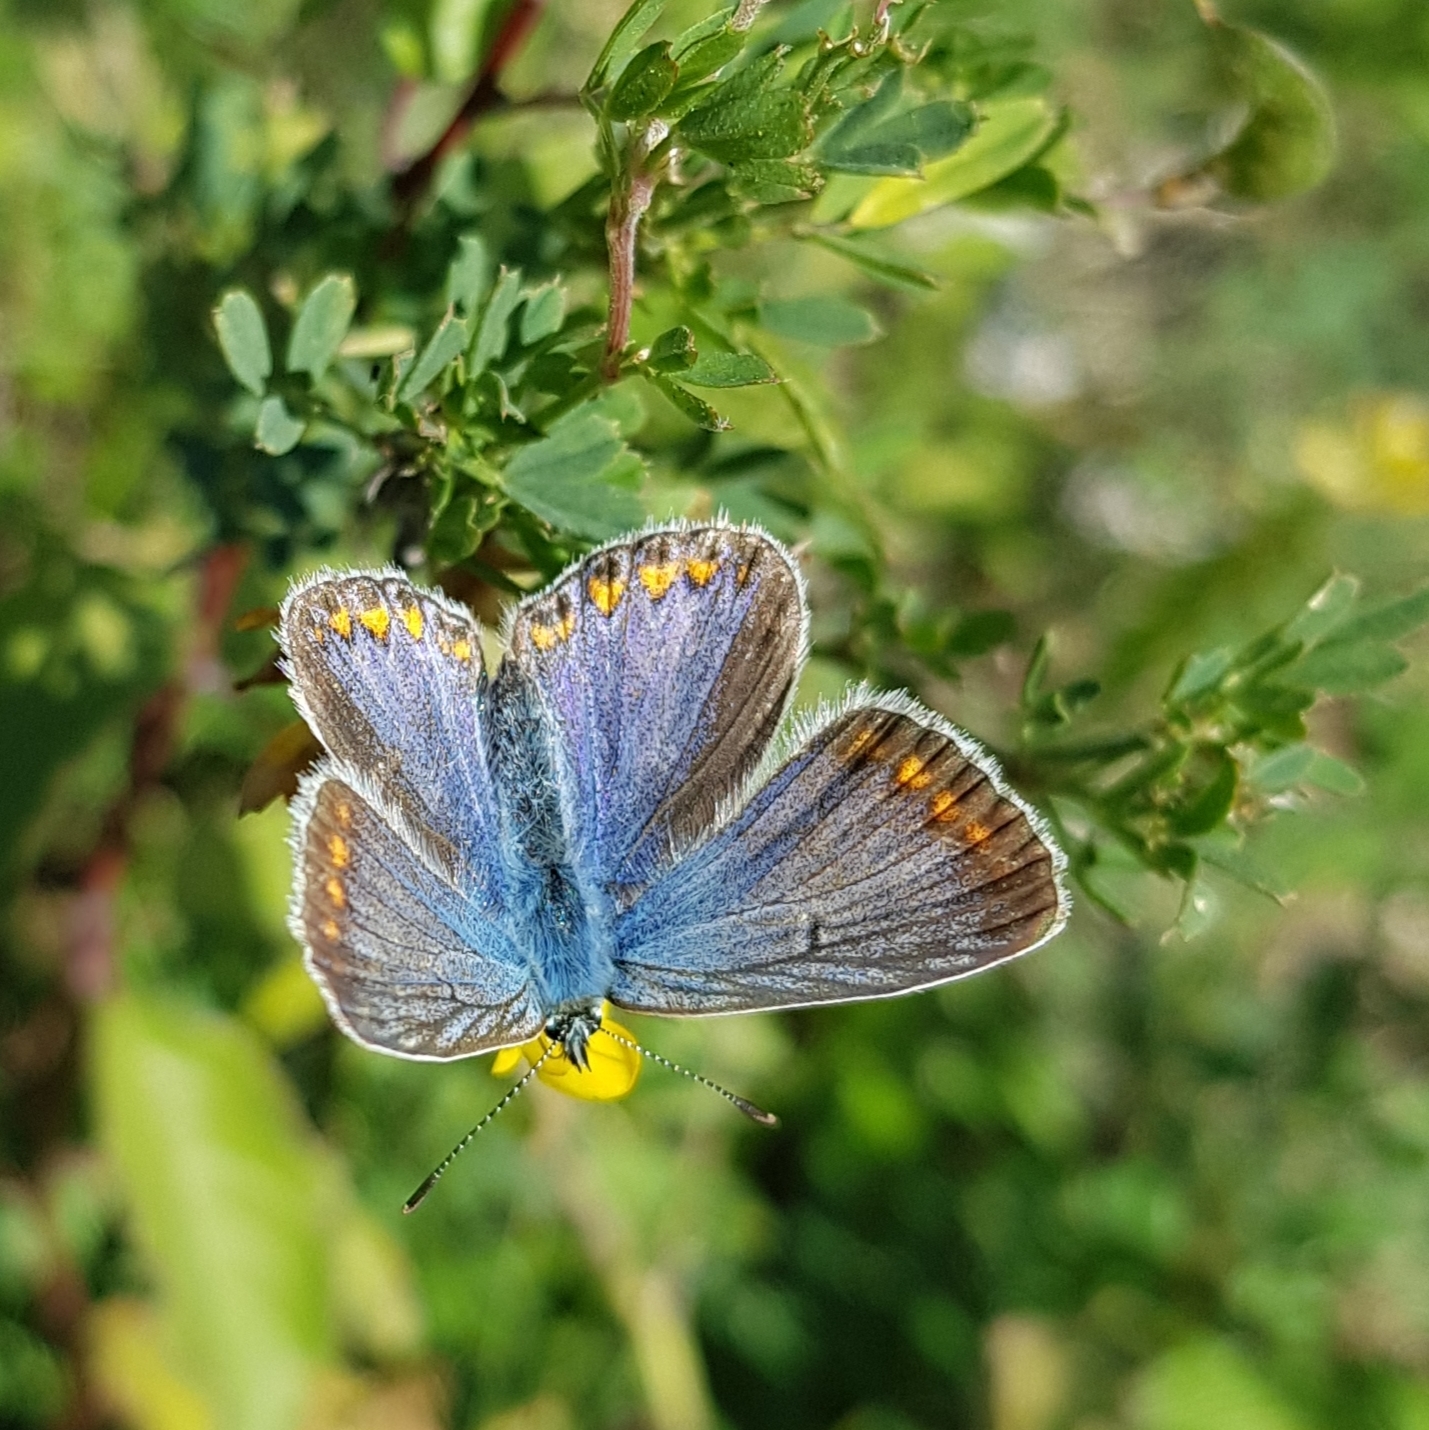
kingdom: Animalia
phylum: Arthropoda
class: Insecta
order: Lepidoptera
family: Lycaenidae
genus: Polyommatus
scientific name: Polyommatus icarus
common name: Common blue
